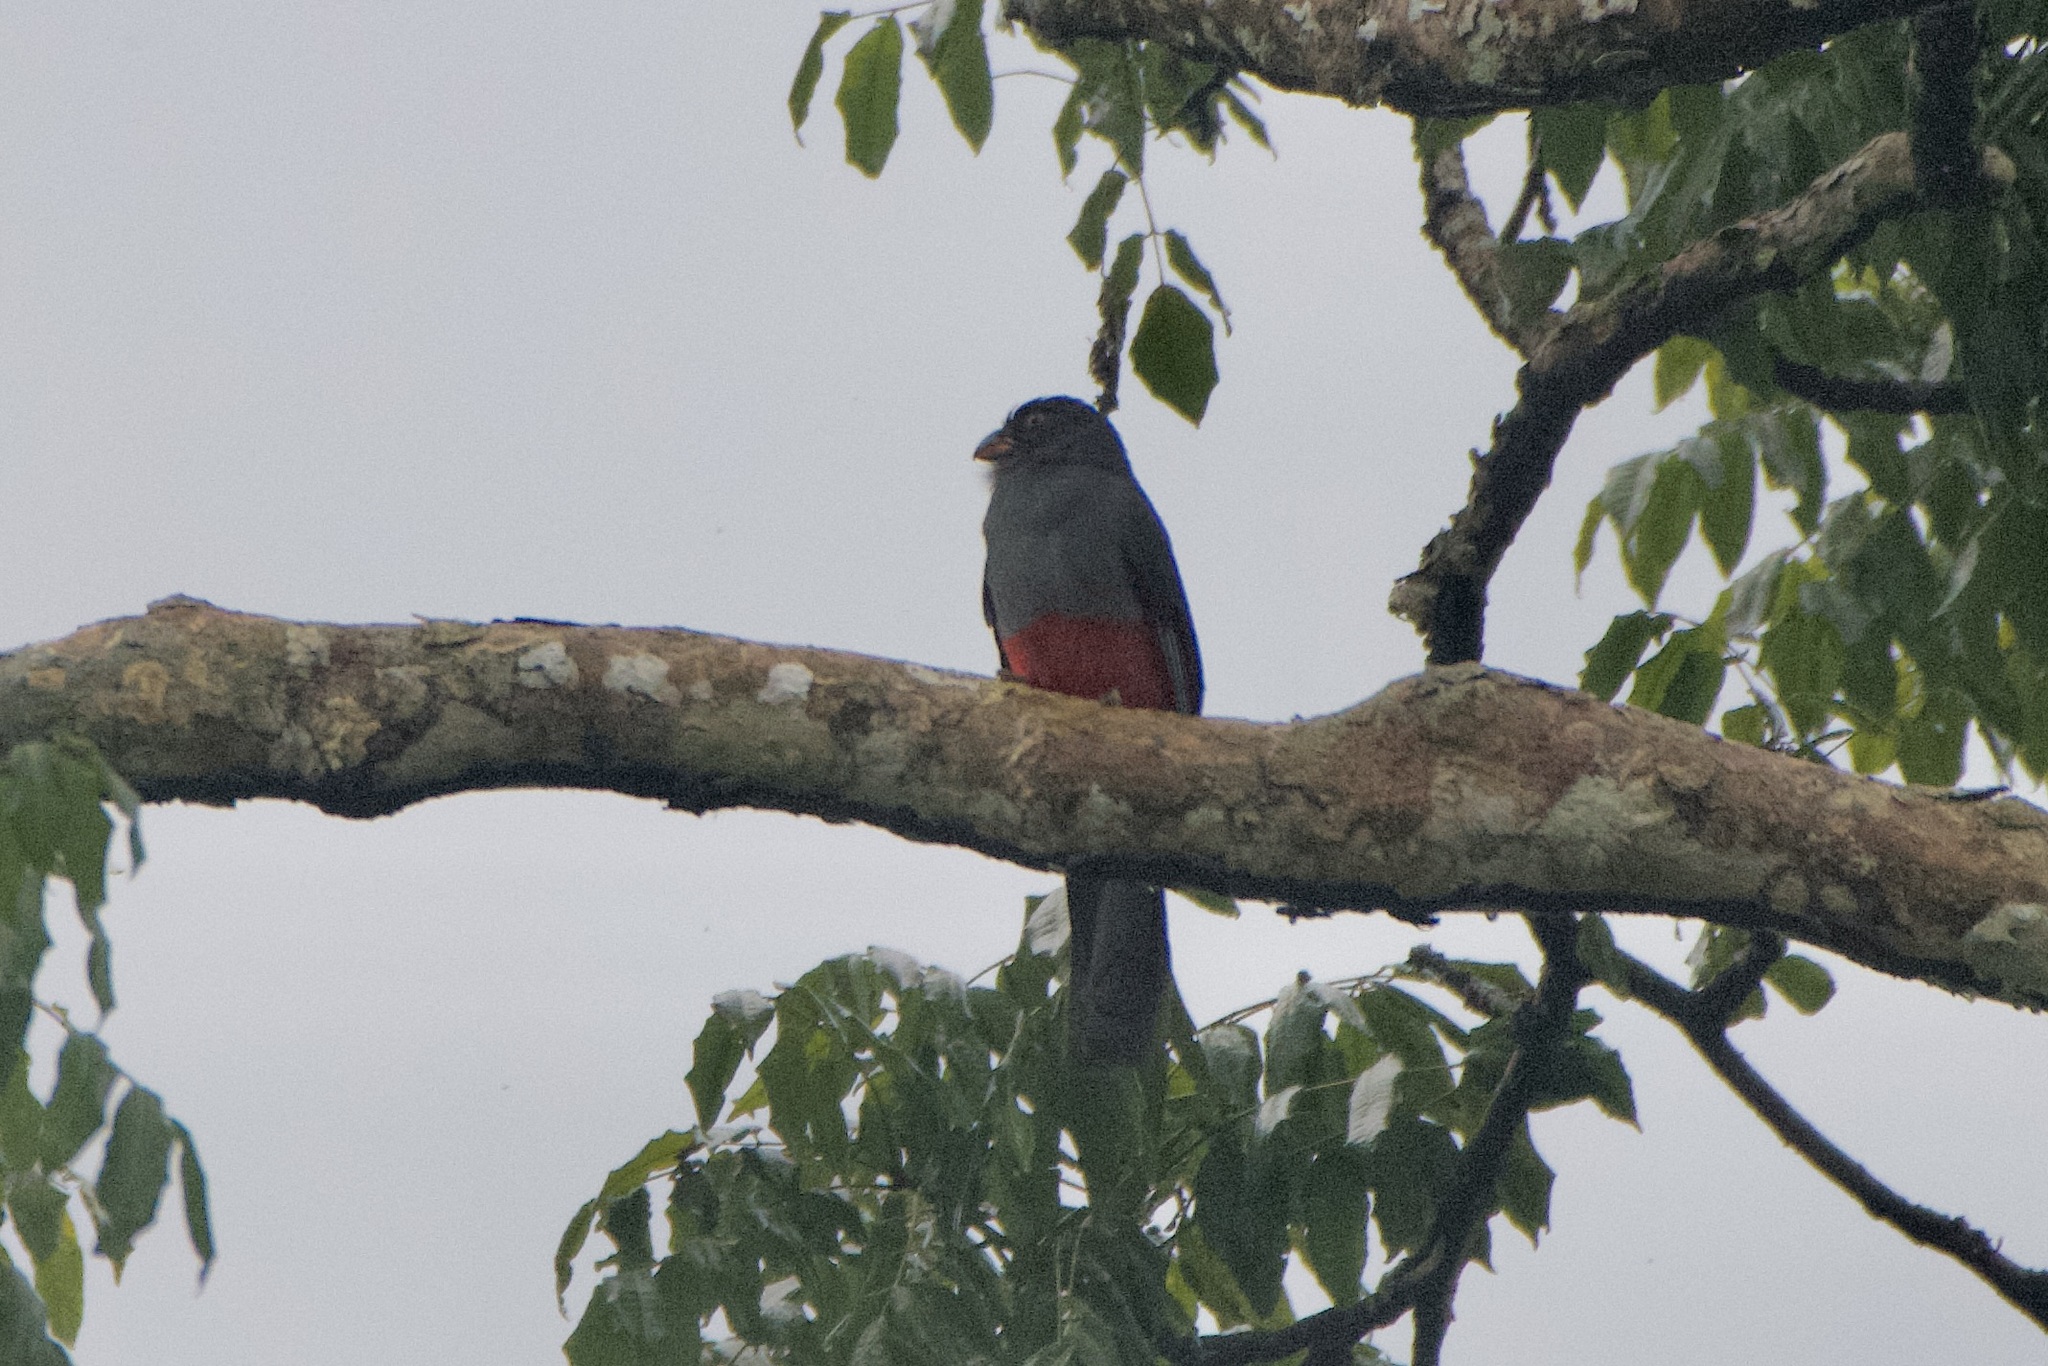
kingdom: Animalia
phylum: Chordata
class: Aves
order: Trogoniformes
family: Trogonidae
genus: Trogon
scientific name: Trogon melanurus
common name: Black-tailed trogon
